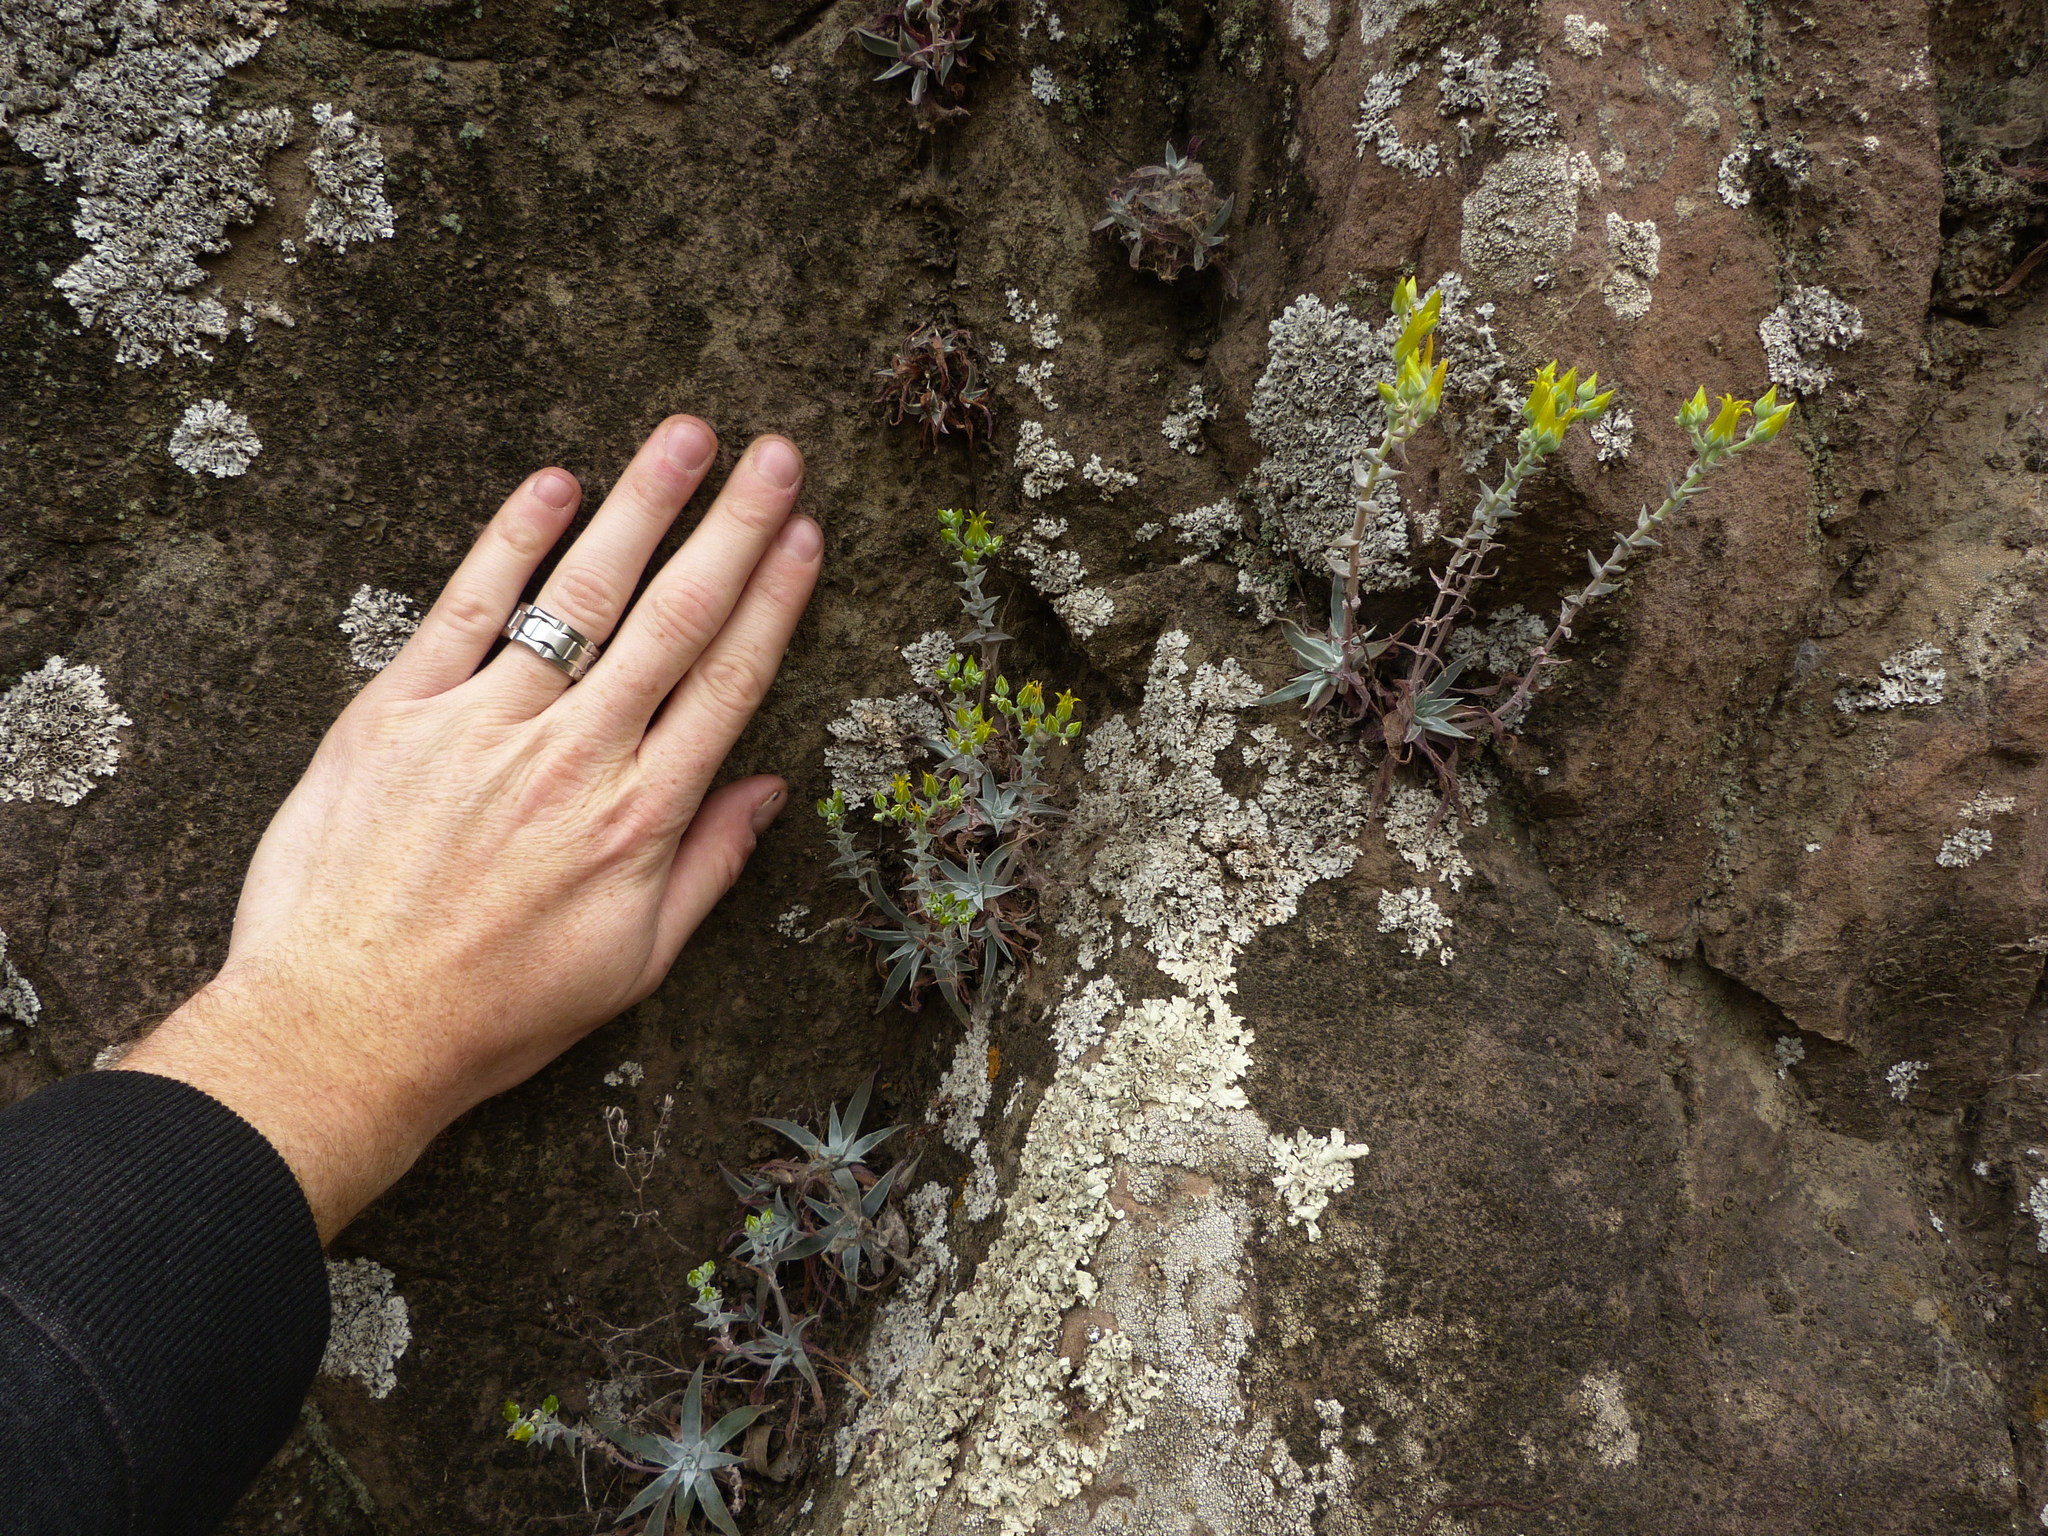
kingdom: Plantae
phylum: Tracheophyta
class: Magnoliopsida
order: Saxifragales
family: Crassulaceae
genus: Dudleya
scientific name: Dudleya verityi
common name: Verity dudleya
